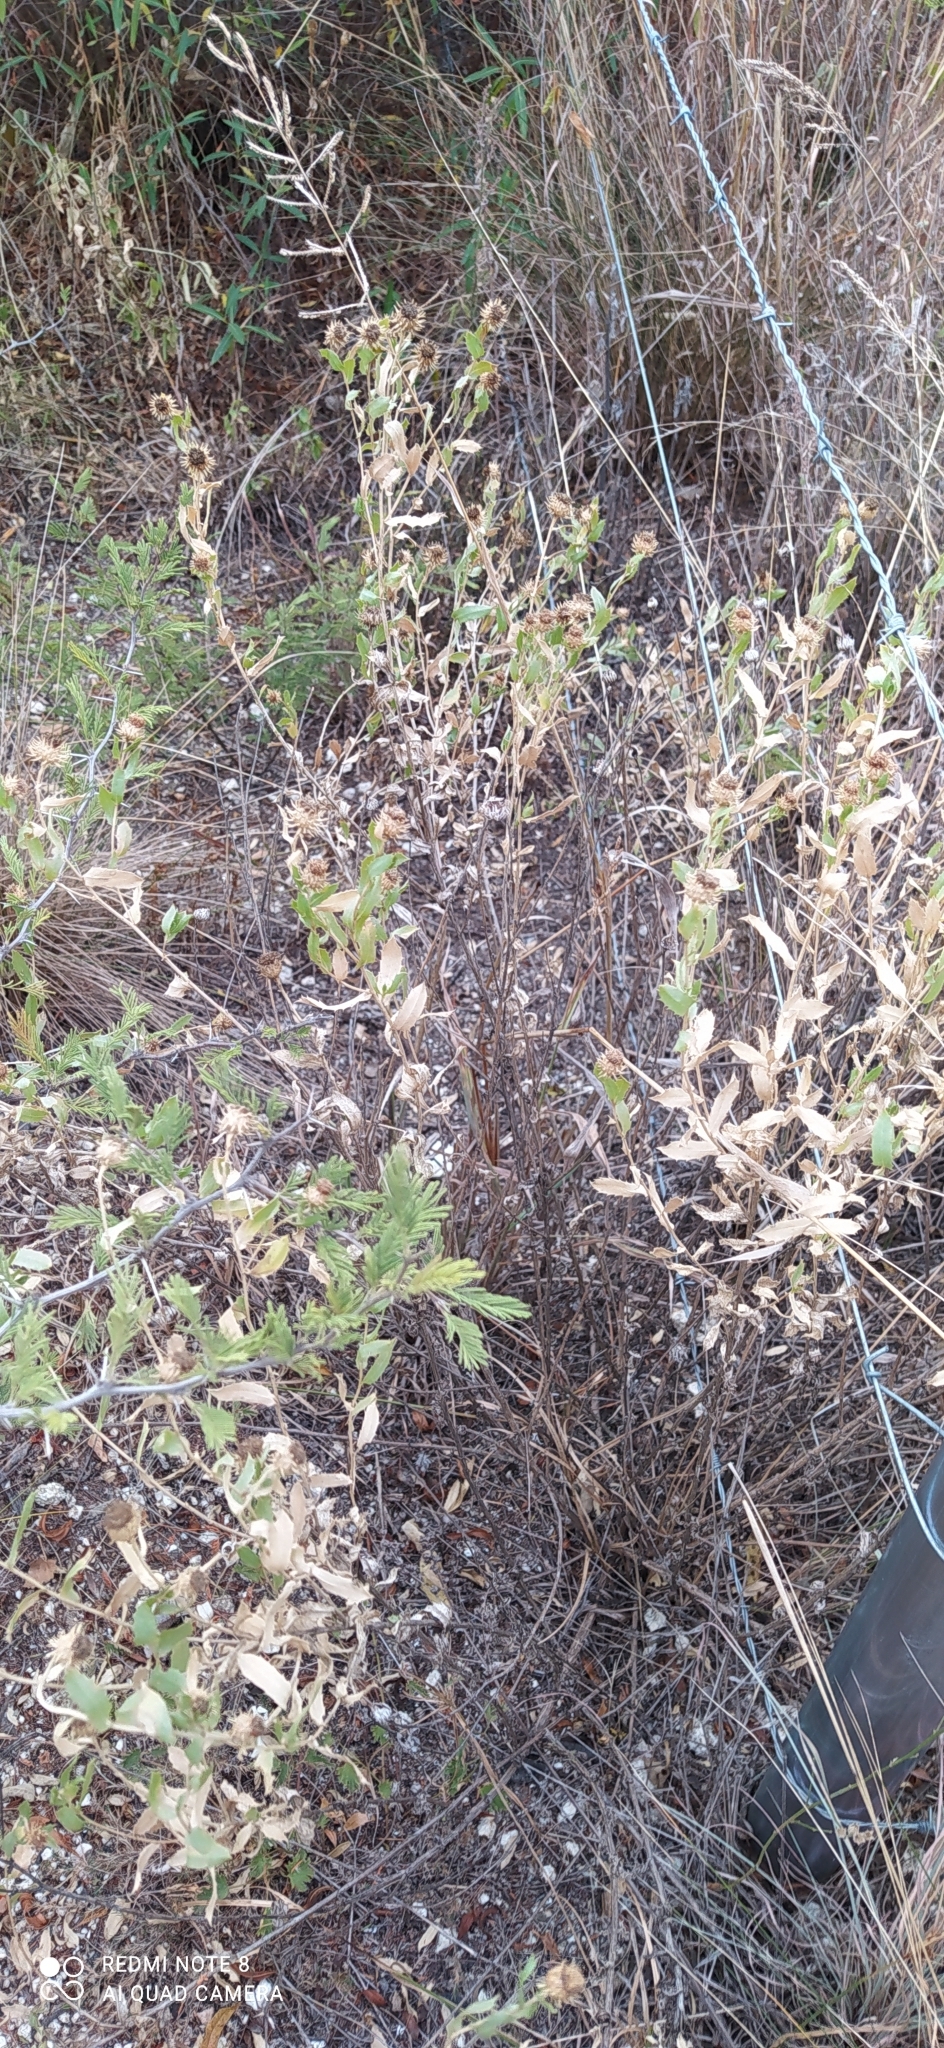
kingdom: Plantae
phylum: Tracheophyta
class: Magnoliopsida
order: Asterales
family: Asteraceae
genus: Grindelia
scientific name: Grindelia pulchella
